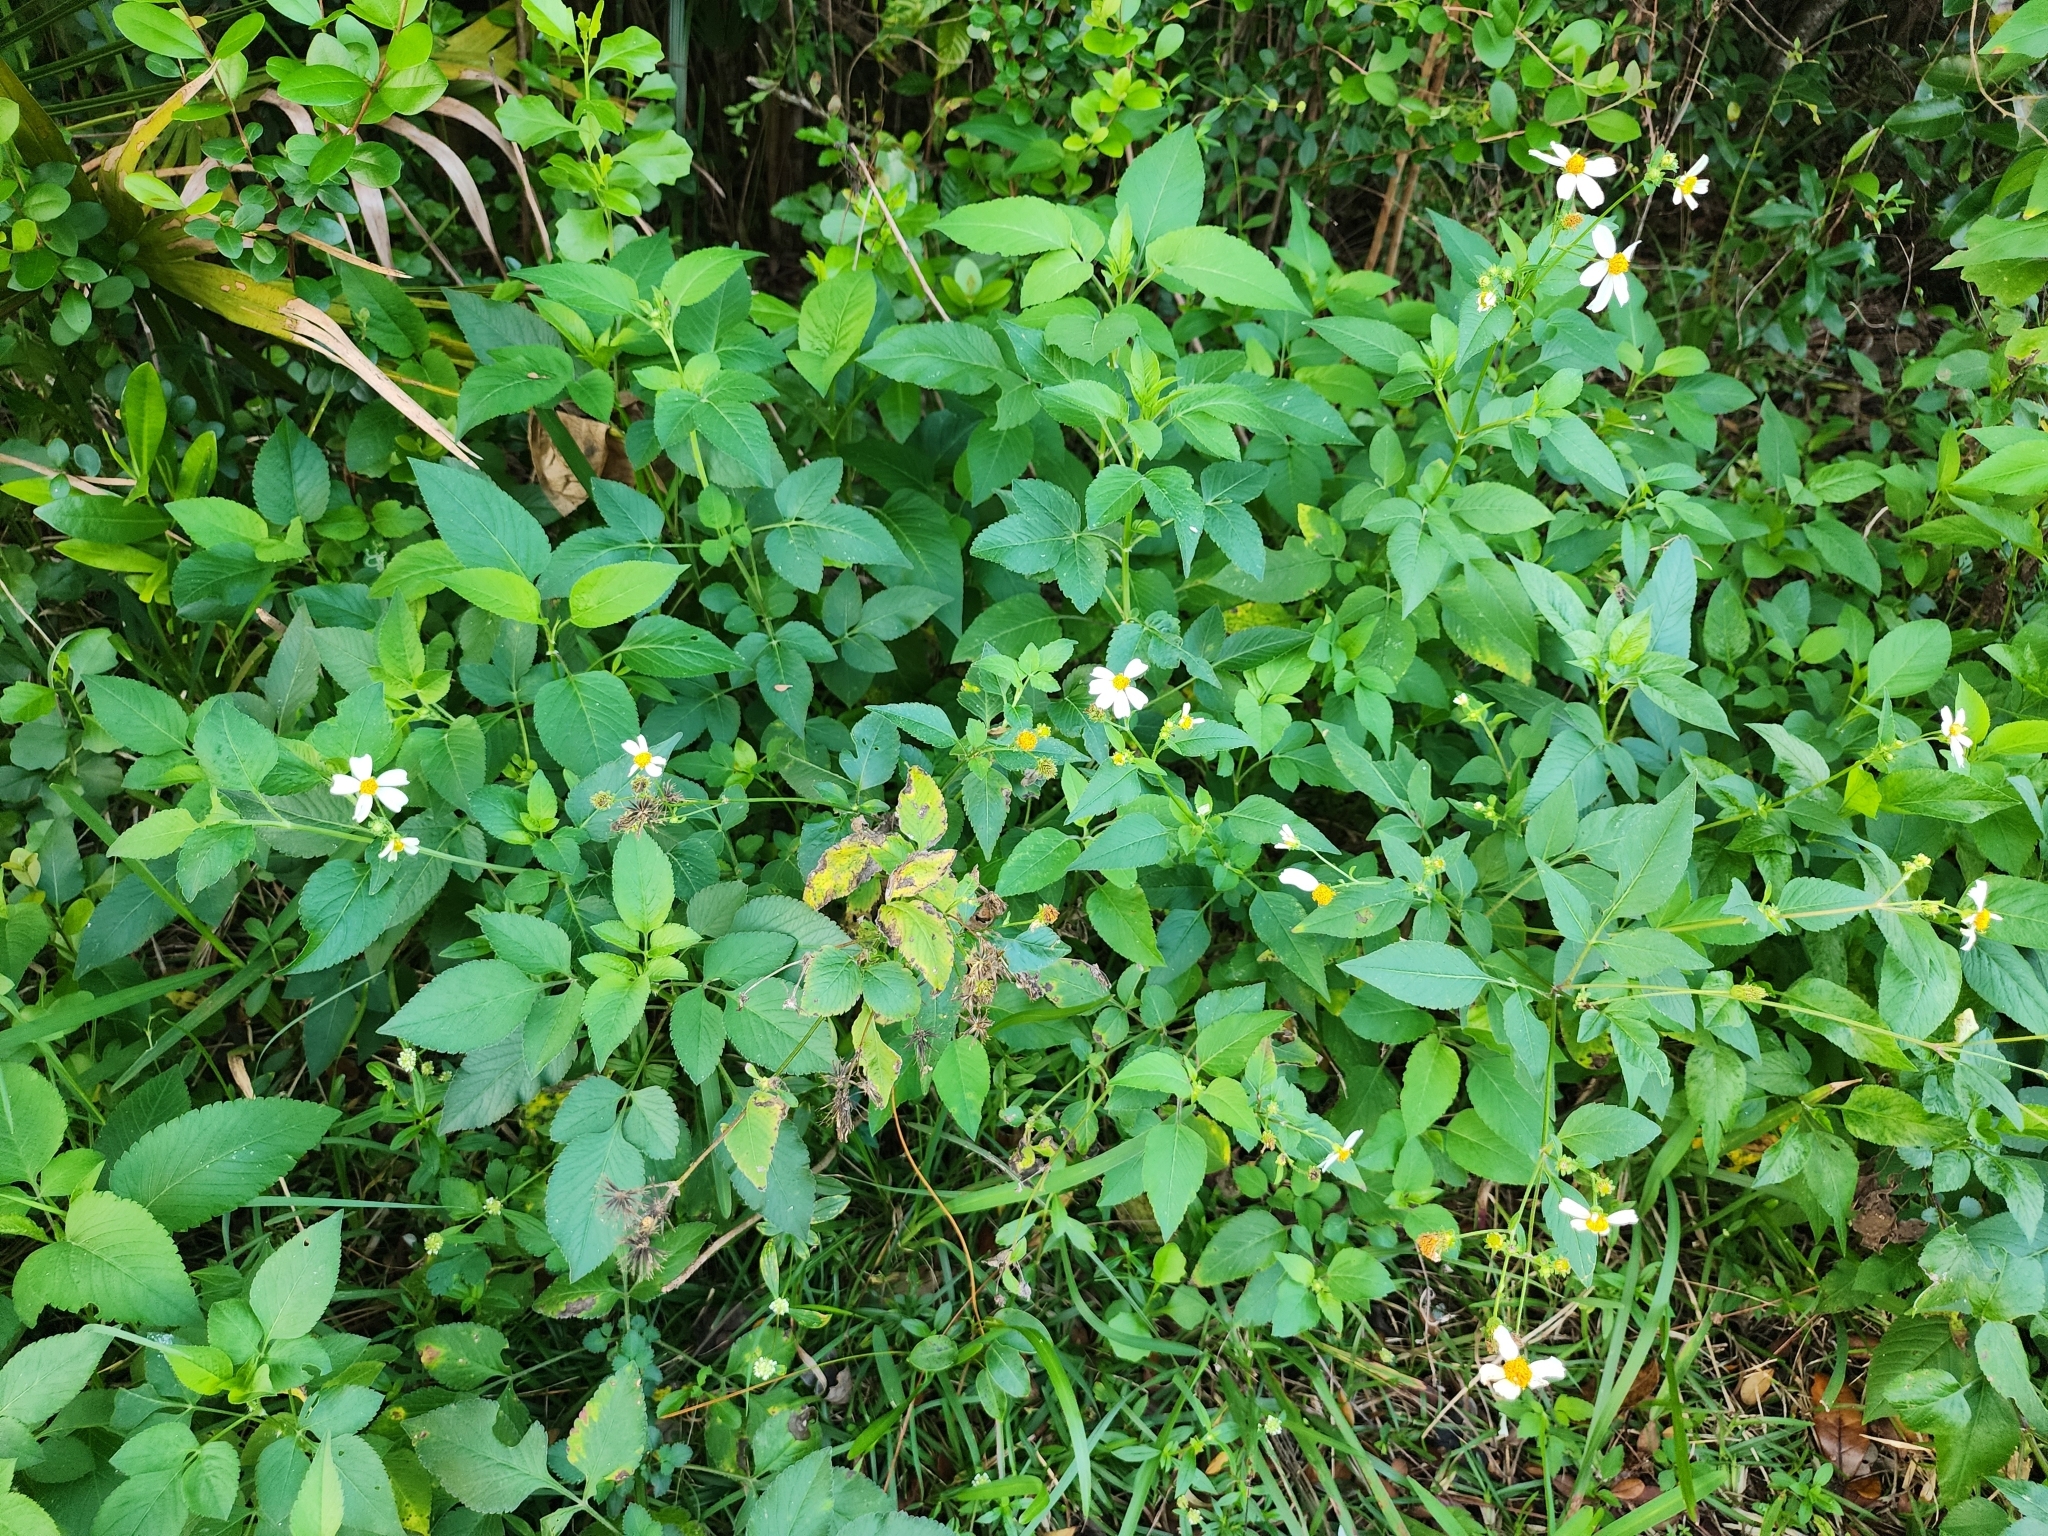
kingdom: Plantae
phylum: Tracheophyta
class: Magnoliopsida
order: Asterales
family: Asteraceae
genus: Bidens
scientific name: Bidens alba
